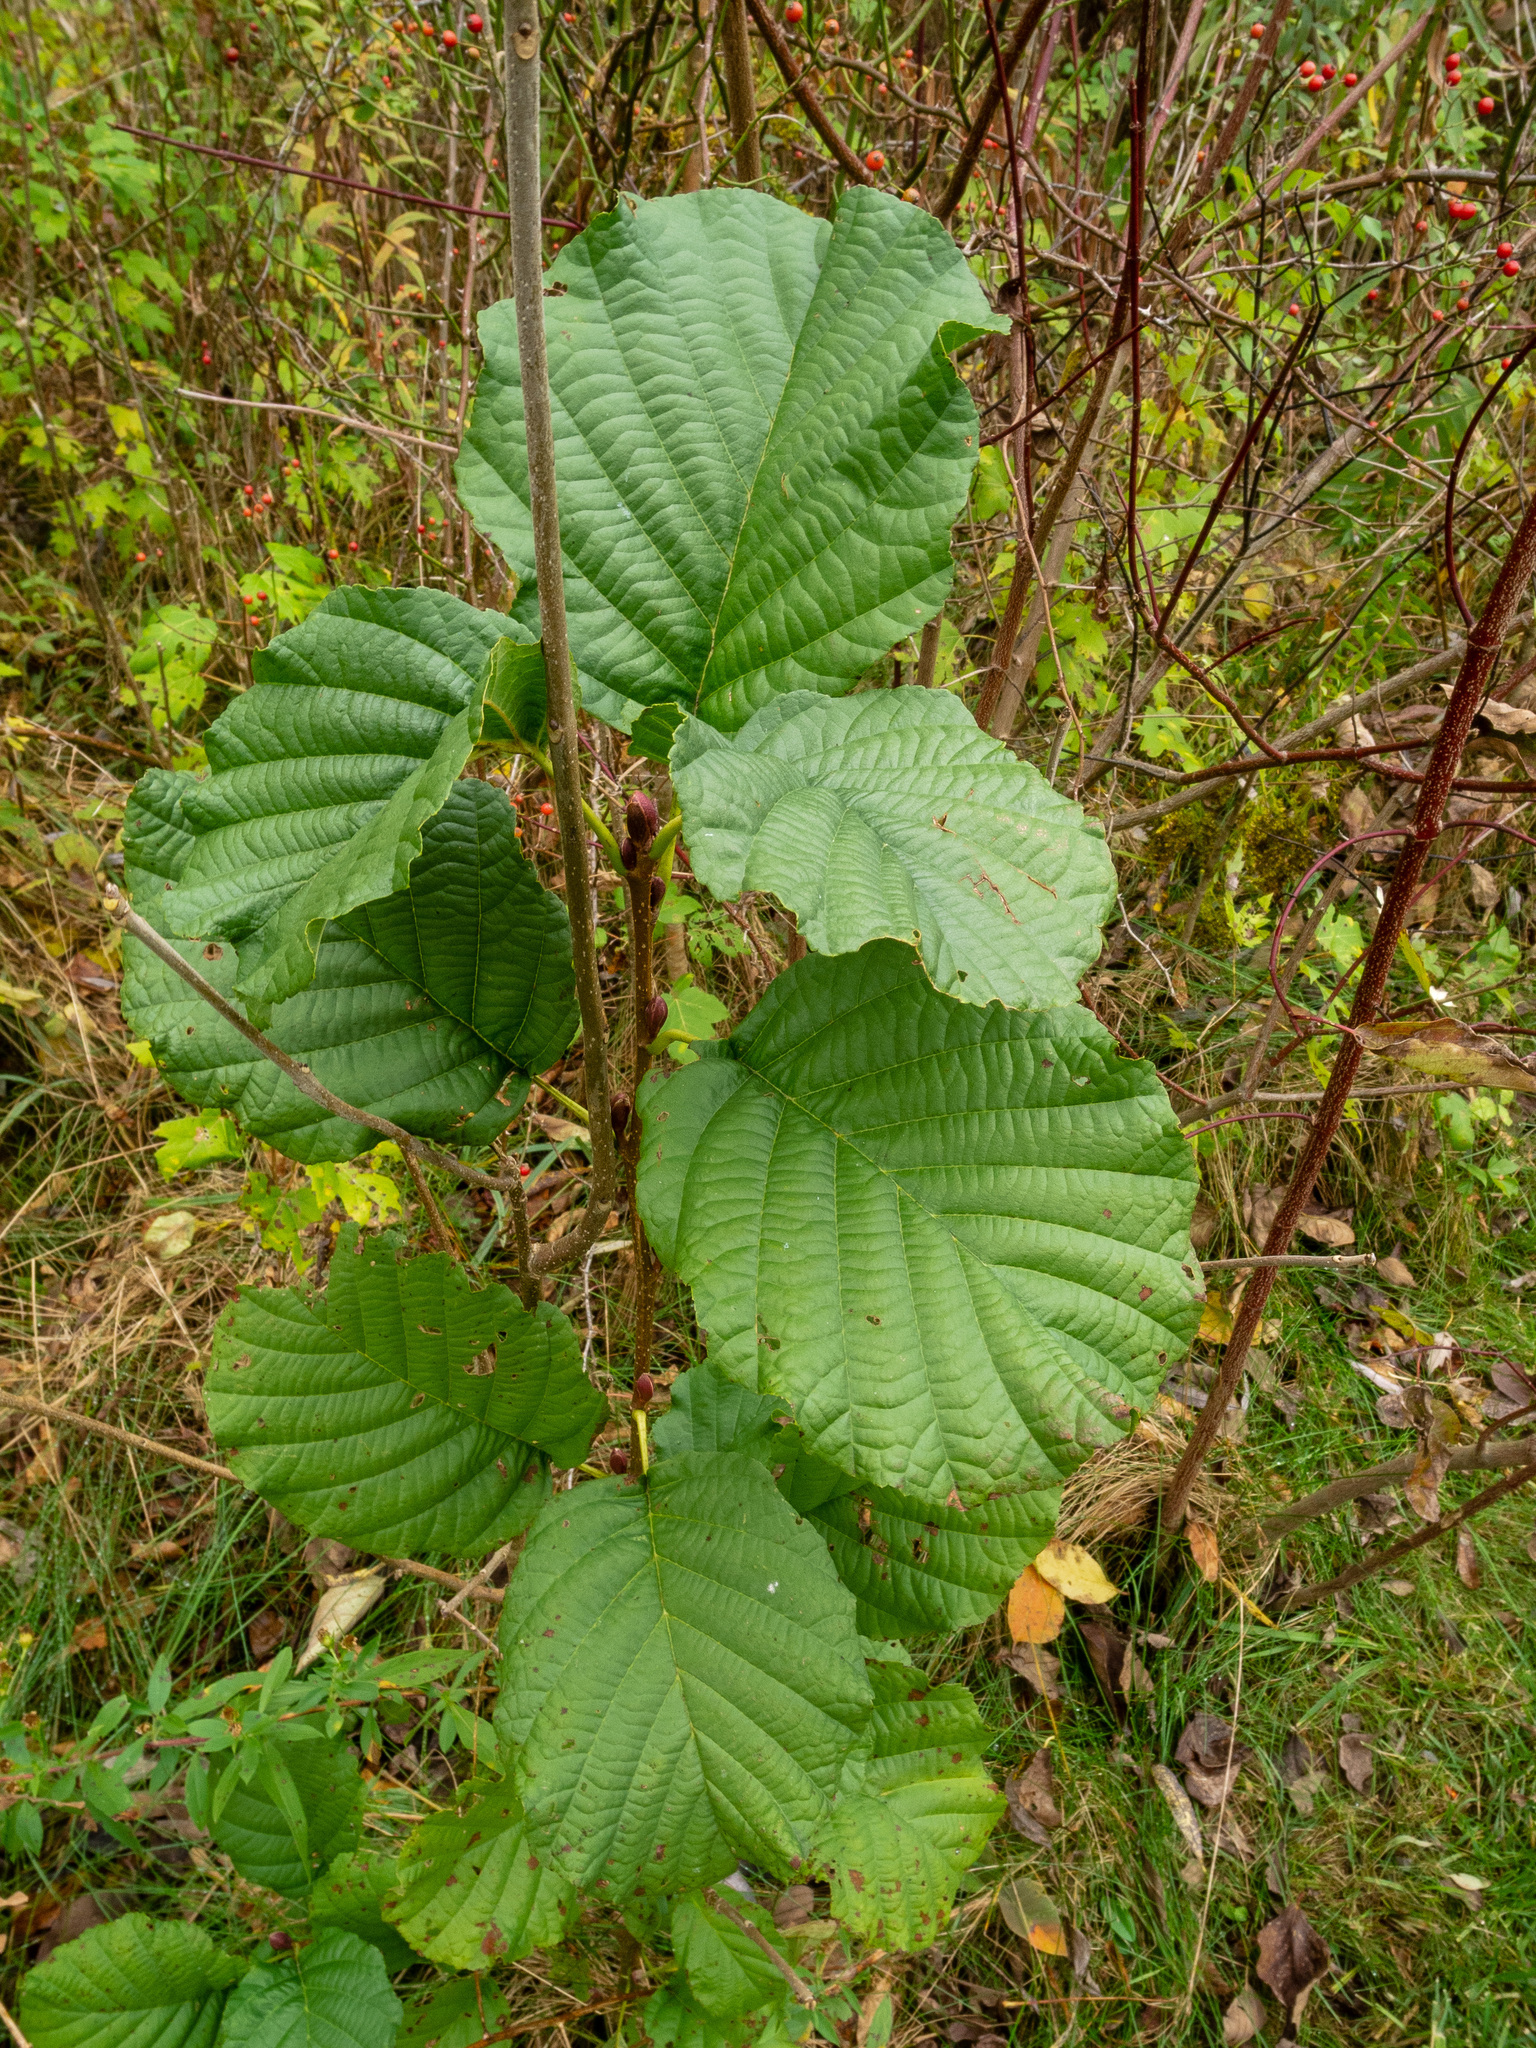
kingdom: Plantae
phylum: Tracheophyta
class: Magnoliopsida
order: Fagales
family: Betulaceae
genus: Alnus
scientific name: Alnus glutinosa
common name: Black alder
